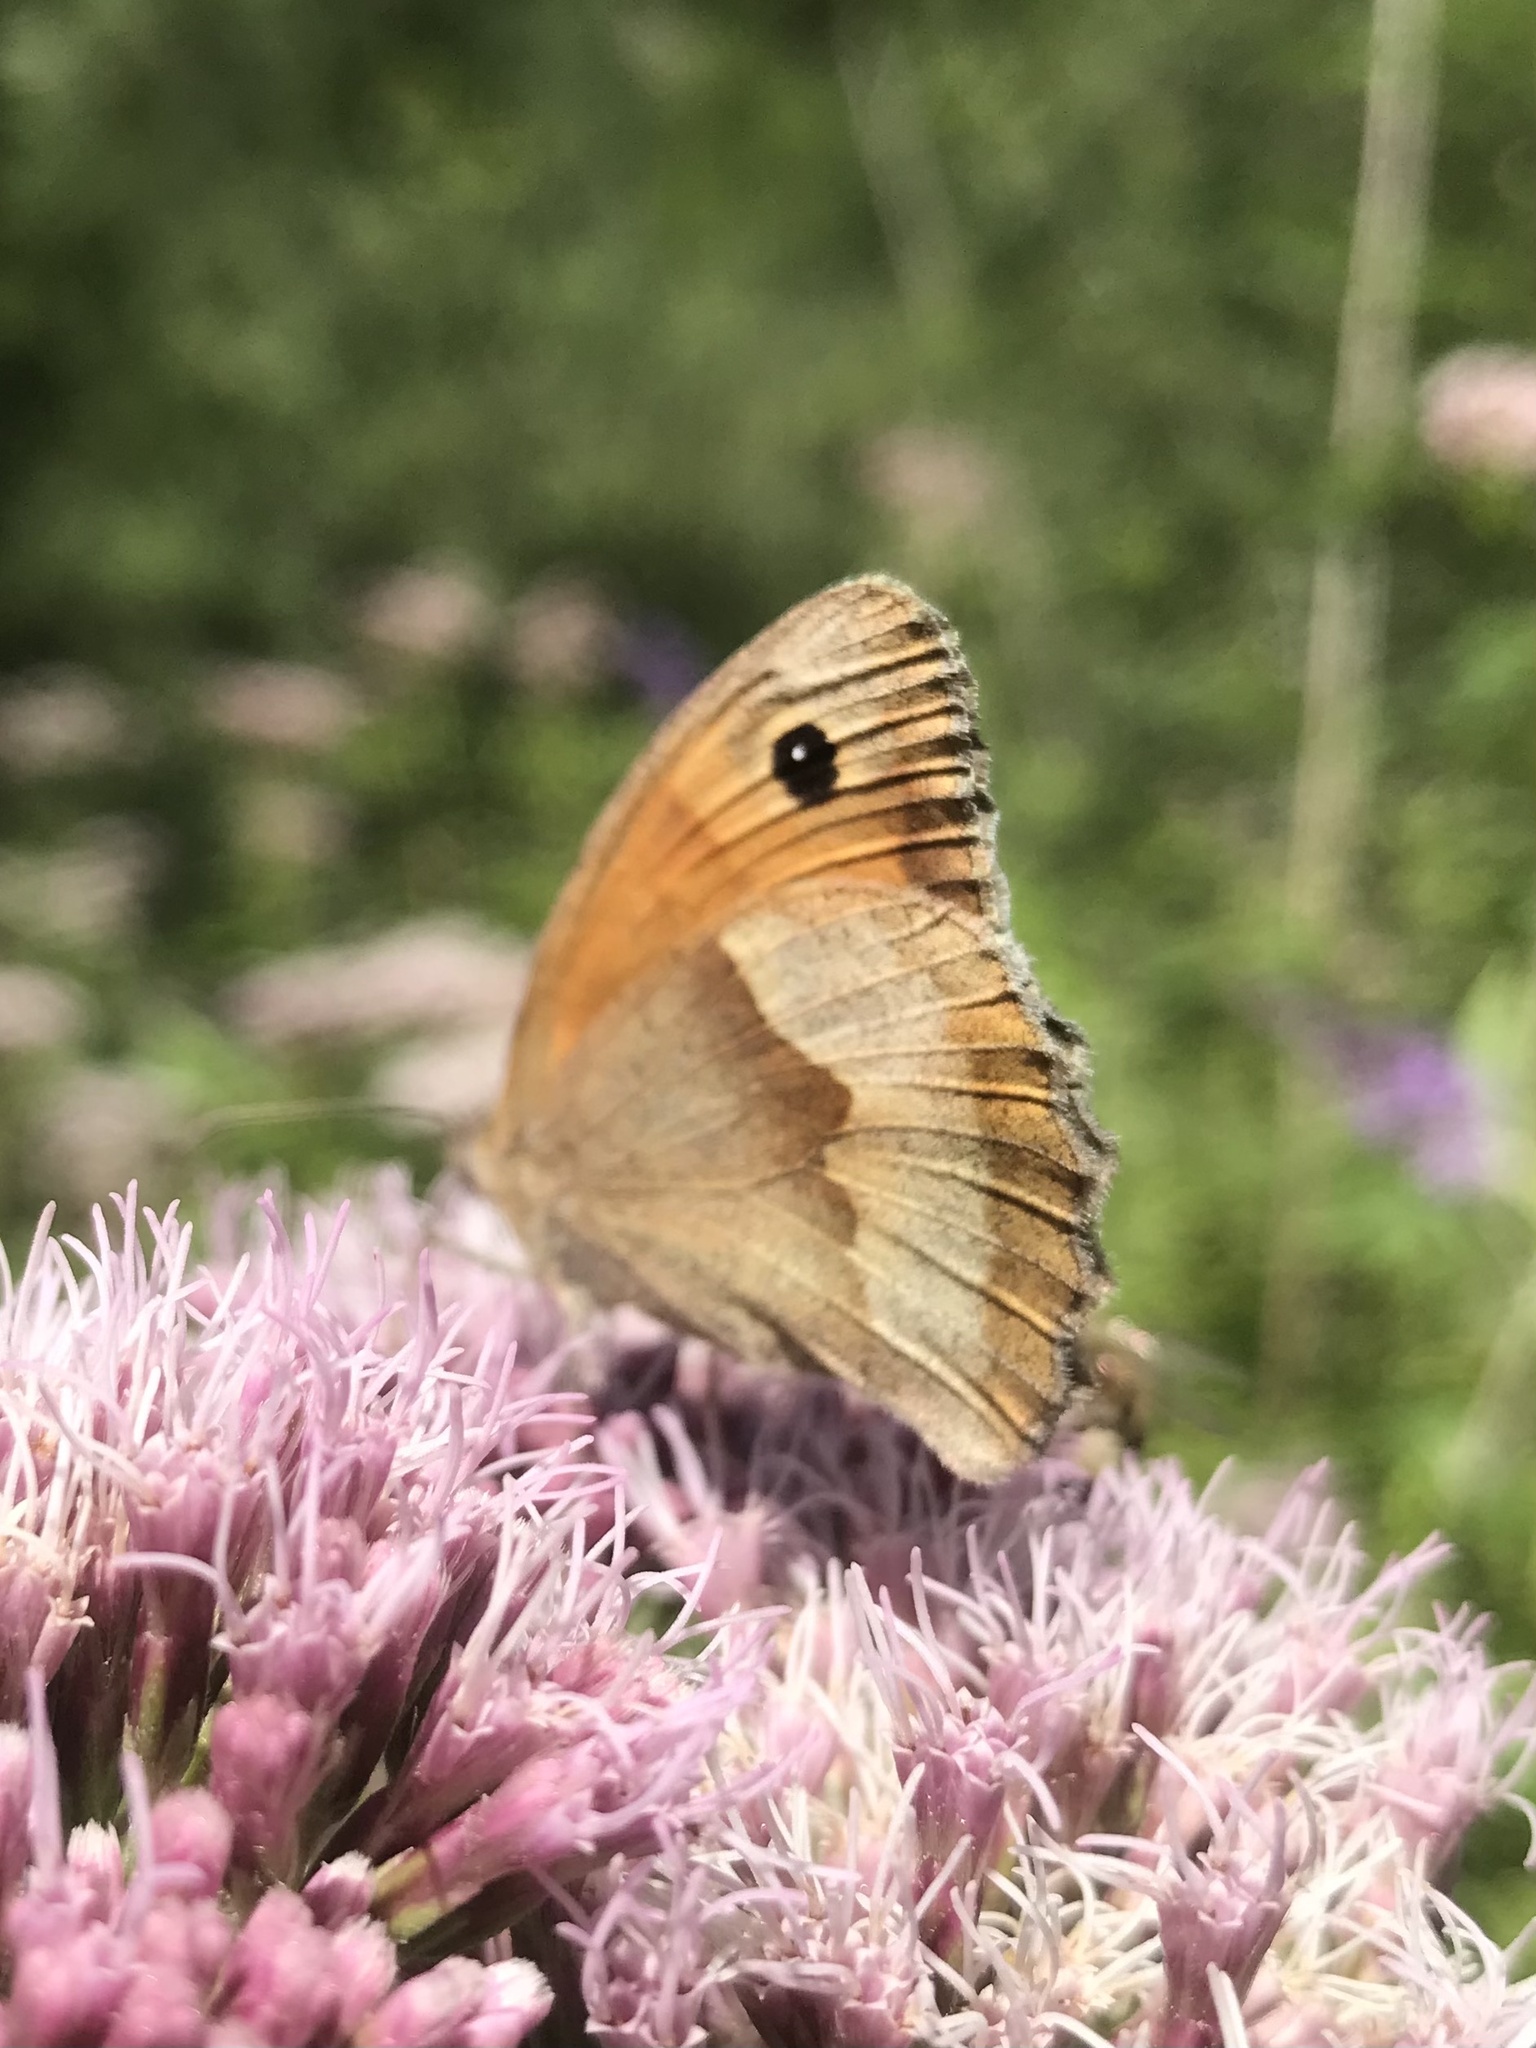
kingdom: Animalia
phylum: Arthropoda
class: Insecta
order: Lepidoptera
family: Nymphalidae
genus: Maniola
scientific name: Maniola jurtina
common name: Meadow brown
